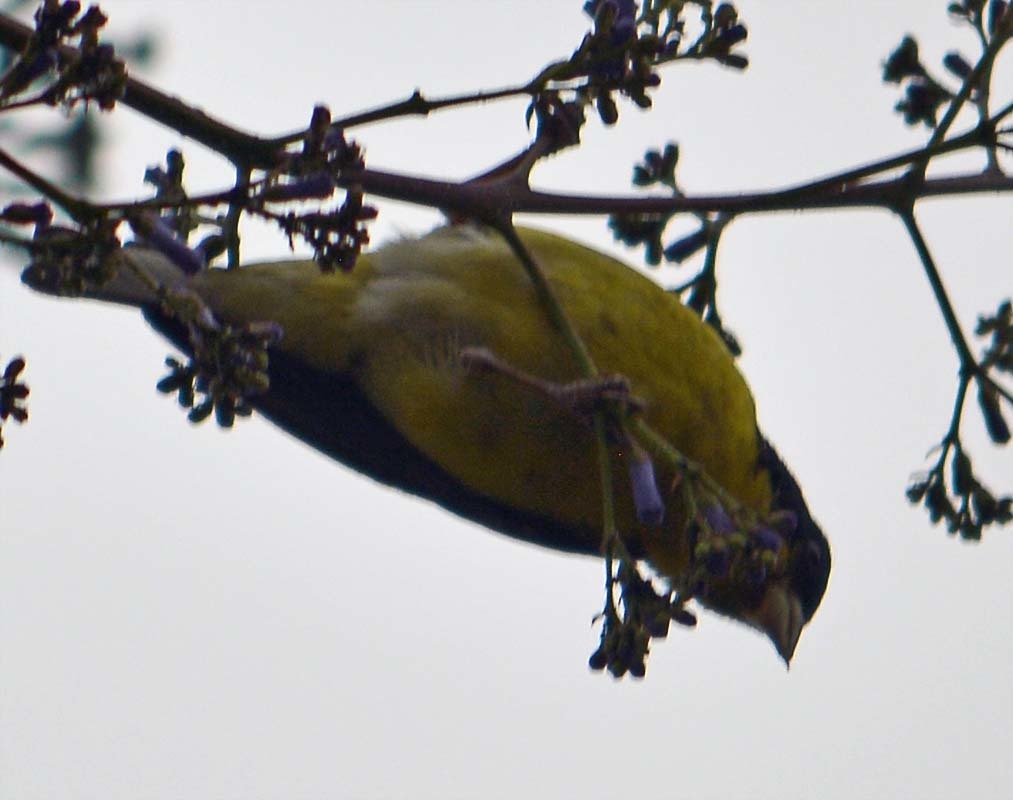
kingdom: Animalia
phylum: Chordata
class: Aves
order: Passeriformes
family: Fringillidae
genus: Spinus
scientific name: Spinus psaltria
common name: Lesser goldfinch
